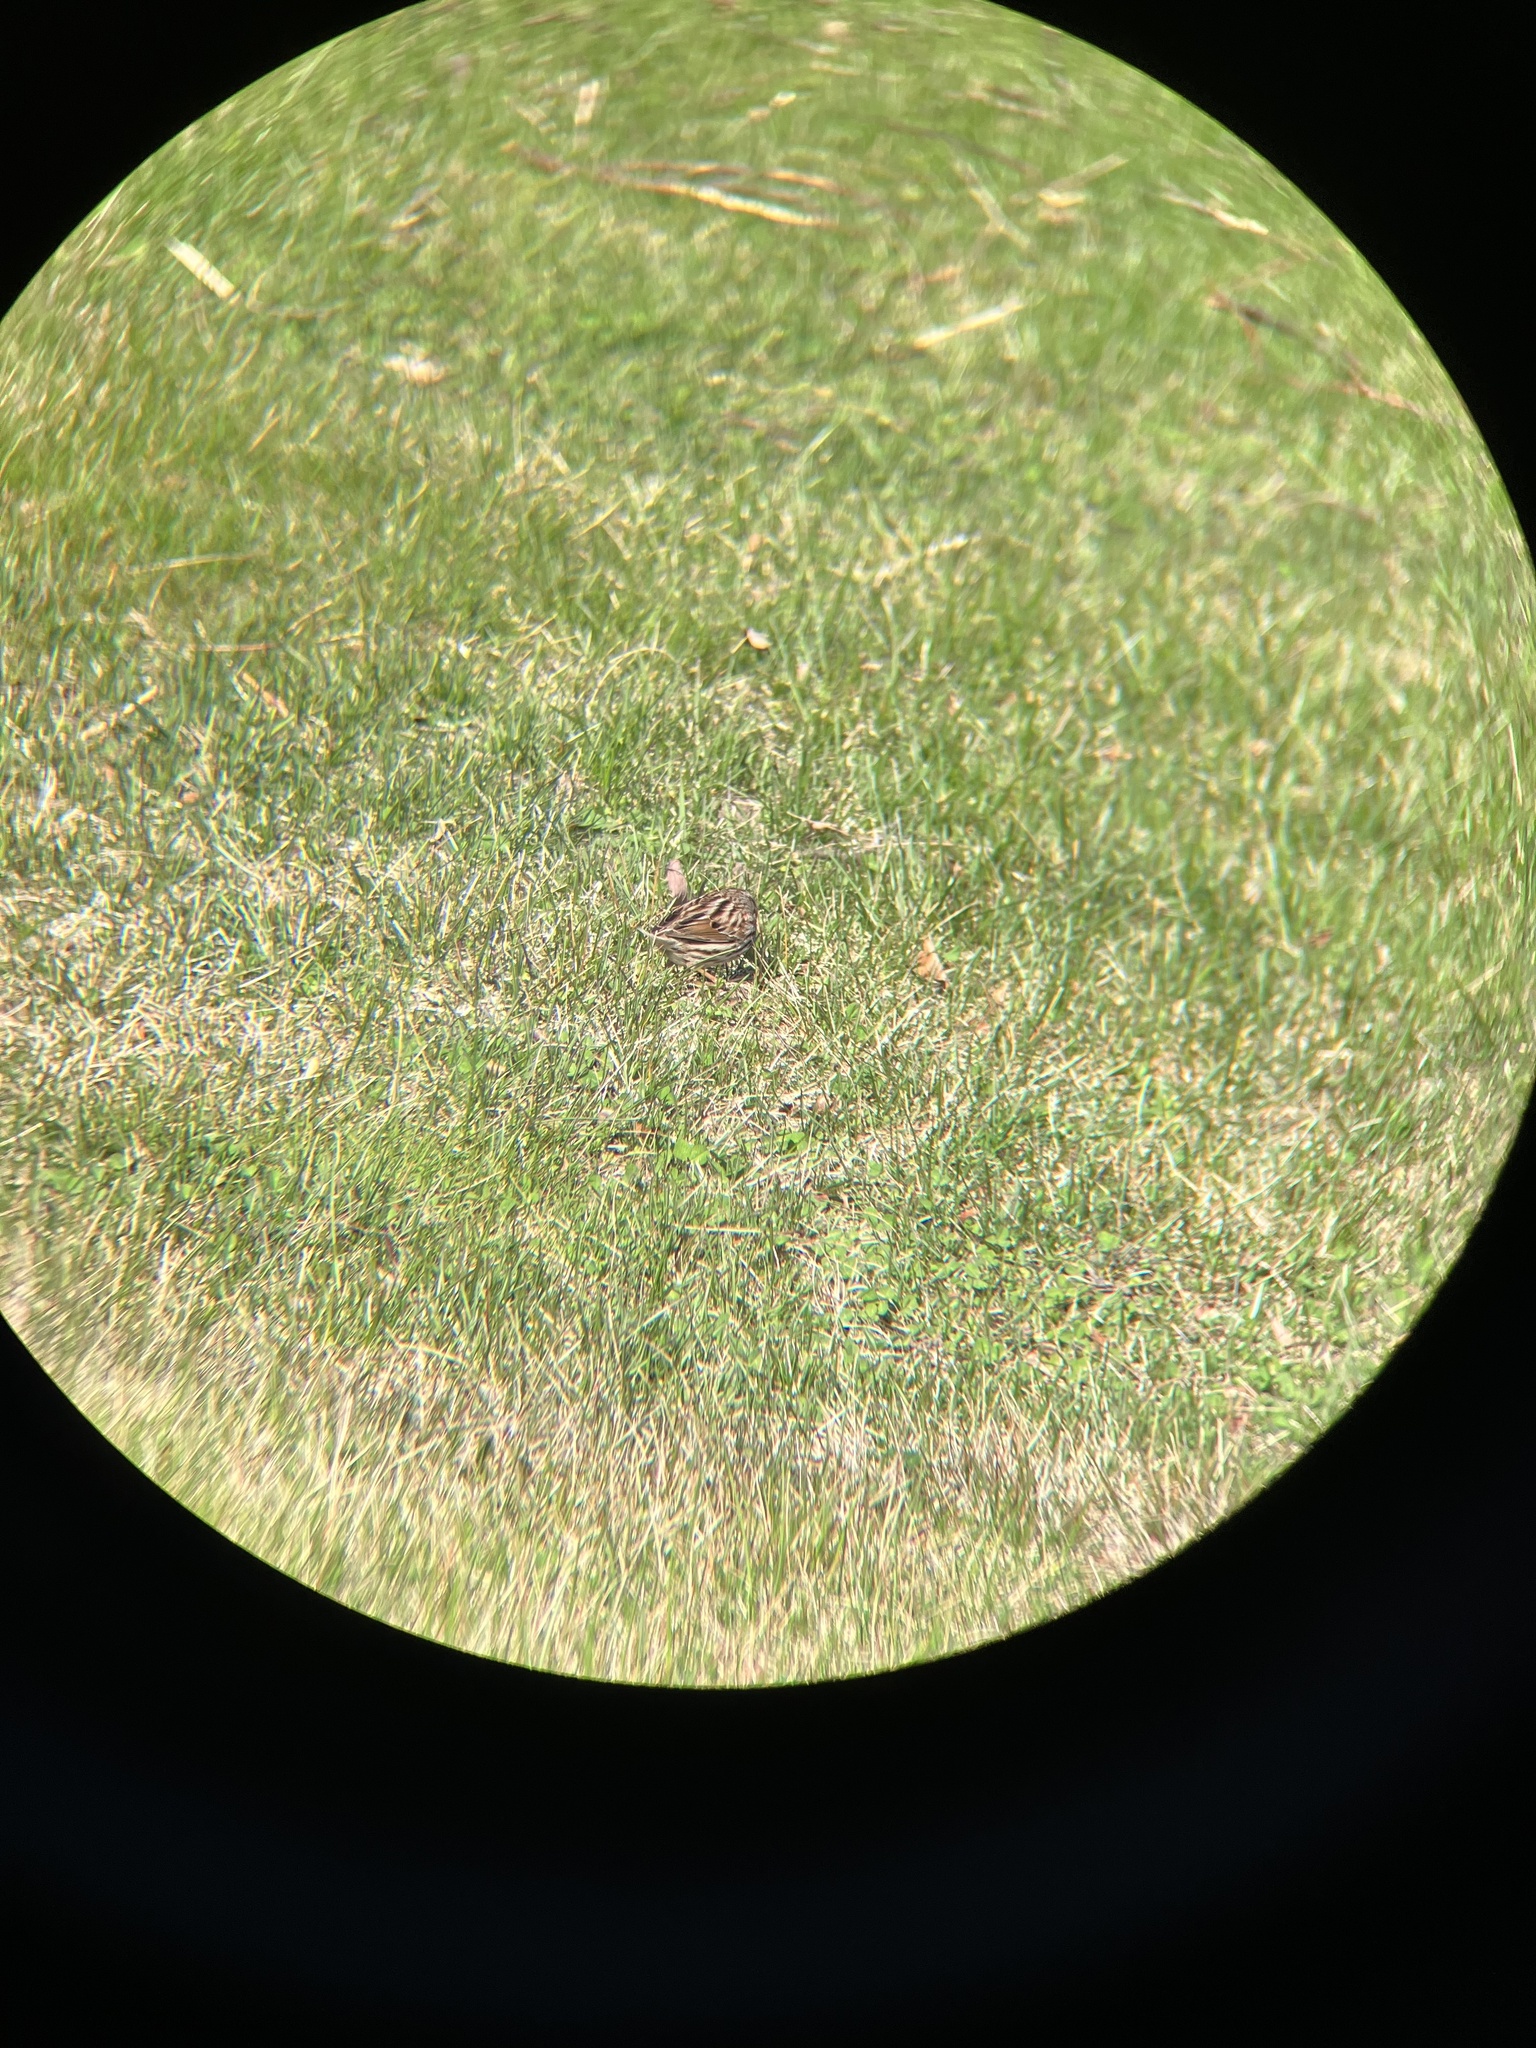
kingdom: Animalia
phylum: Chordata
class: Aves
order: Passeriformes
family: Passerellidae
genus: Melospiza
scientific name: Melospiza melodia
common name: Song sparrow
